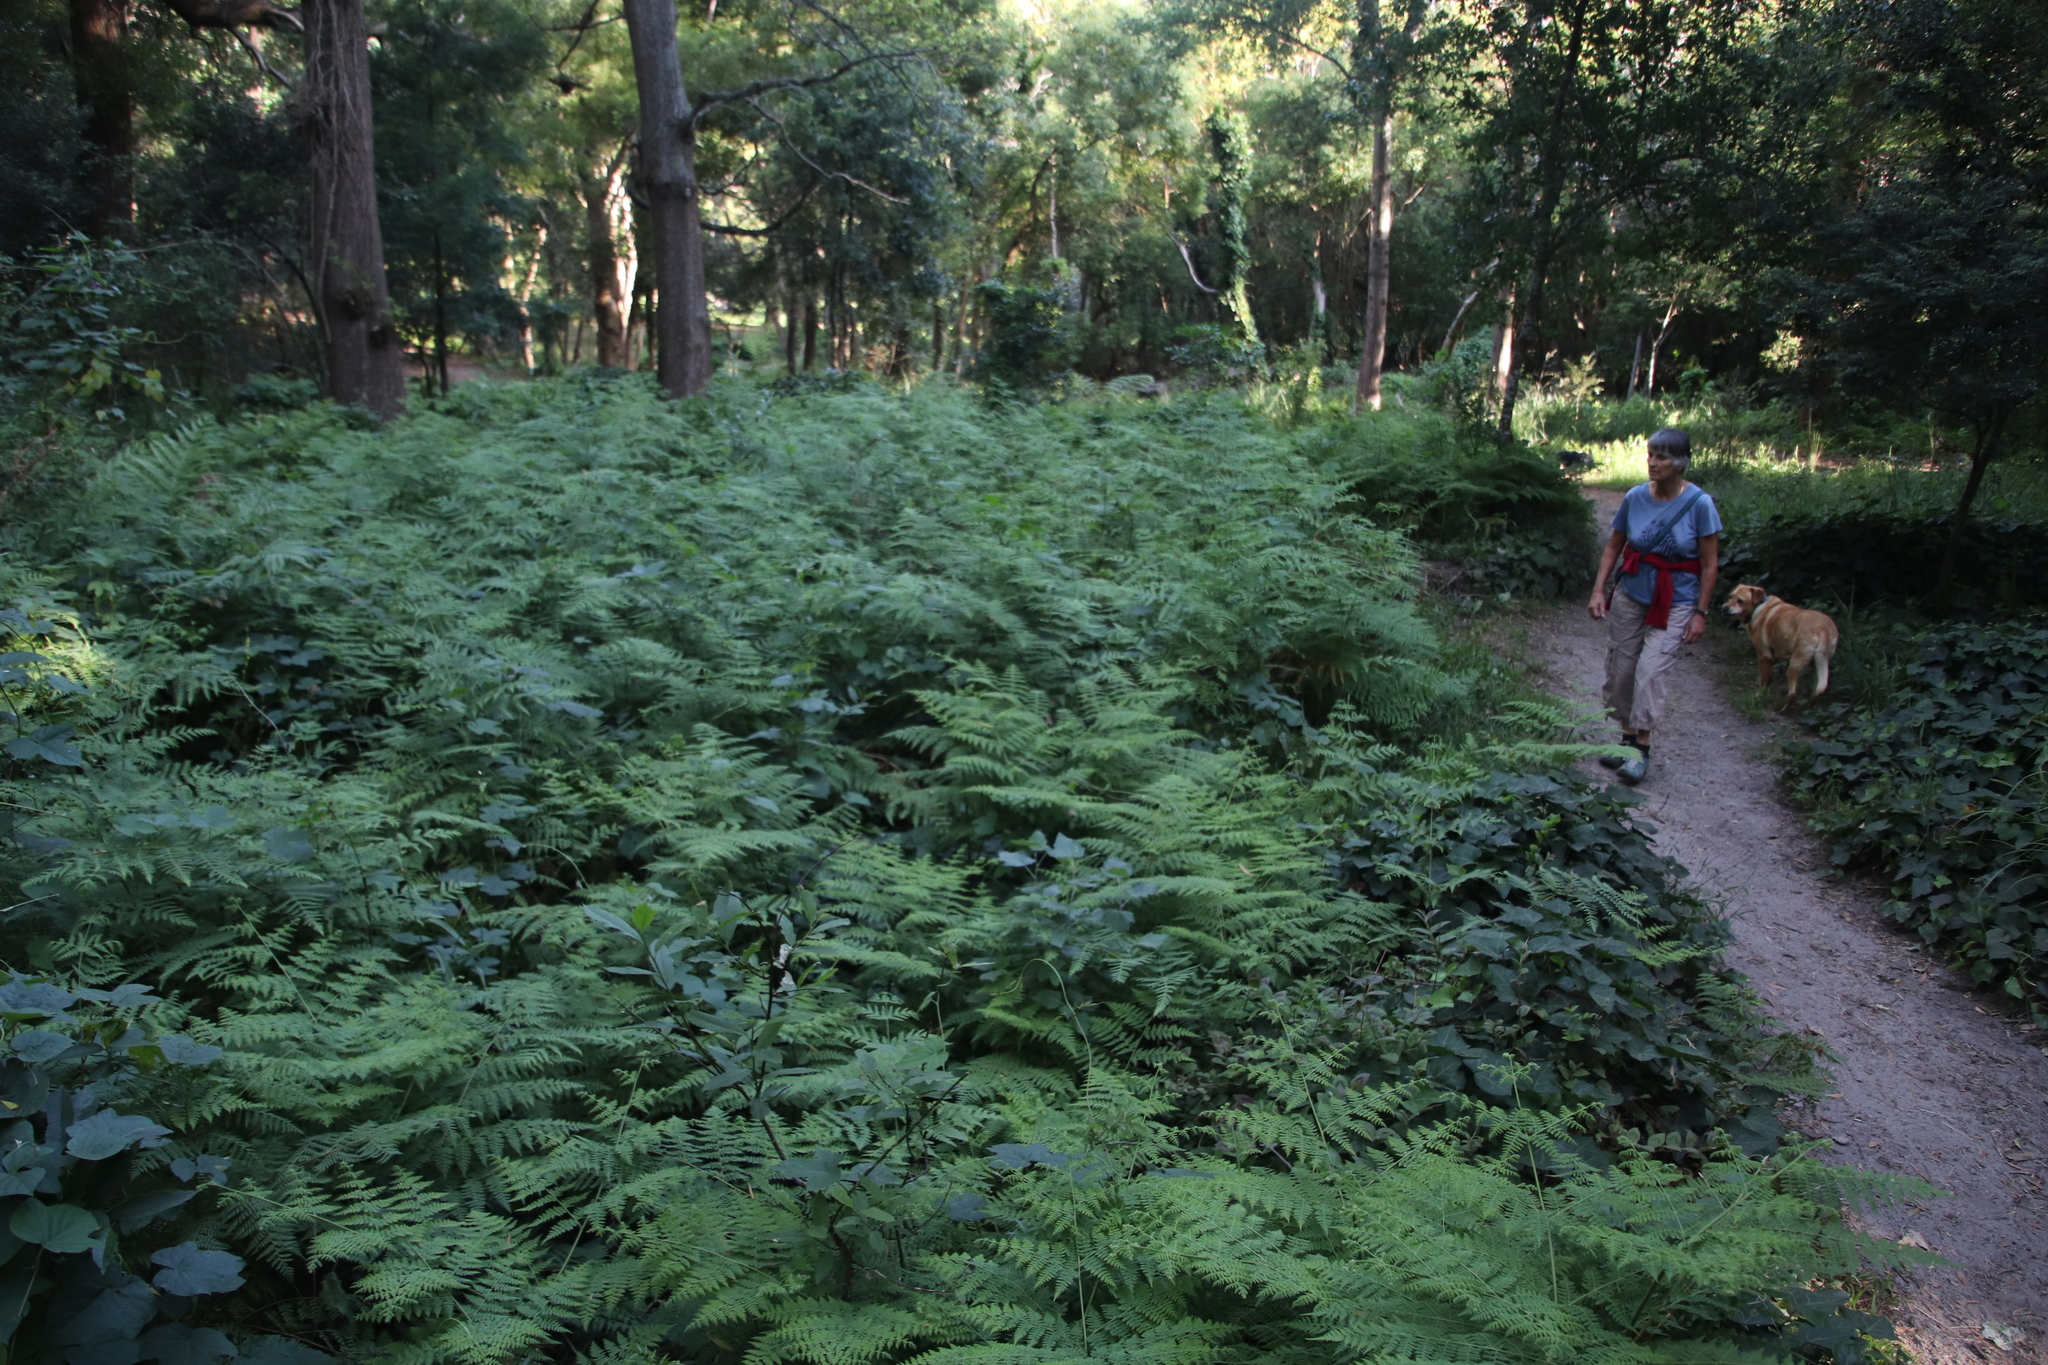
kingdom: Plantae
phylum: Tracheophyta
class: Polypodiopsida
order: Polypodiales
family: Dennstaedtiaceae
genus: Pteridium
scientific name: Pteridium aquilinum
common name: Bracken
